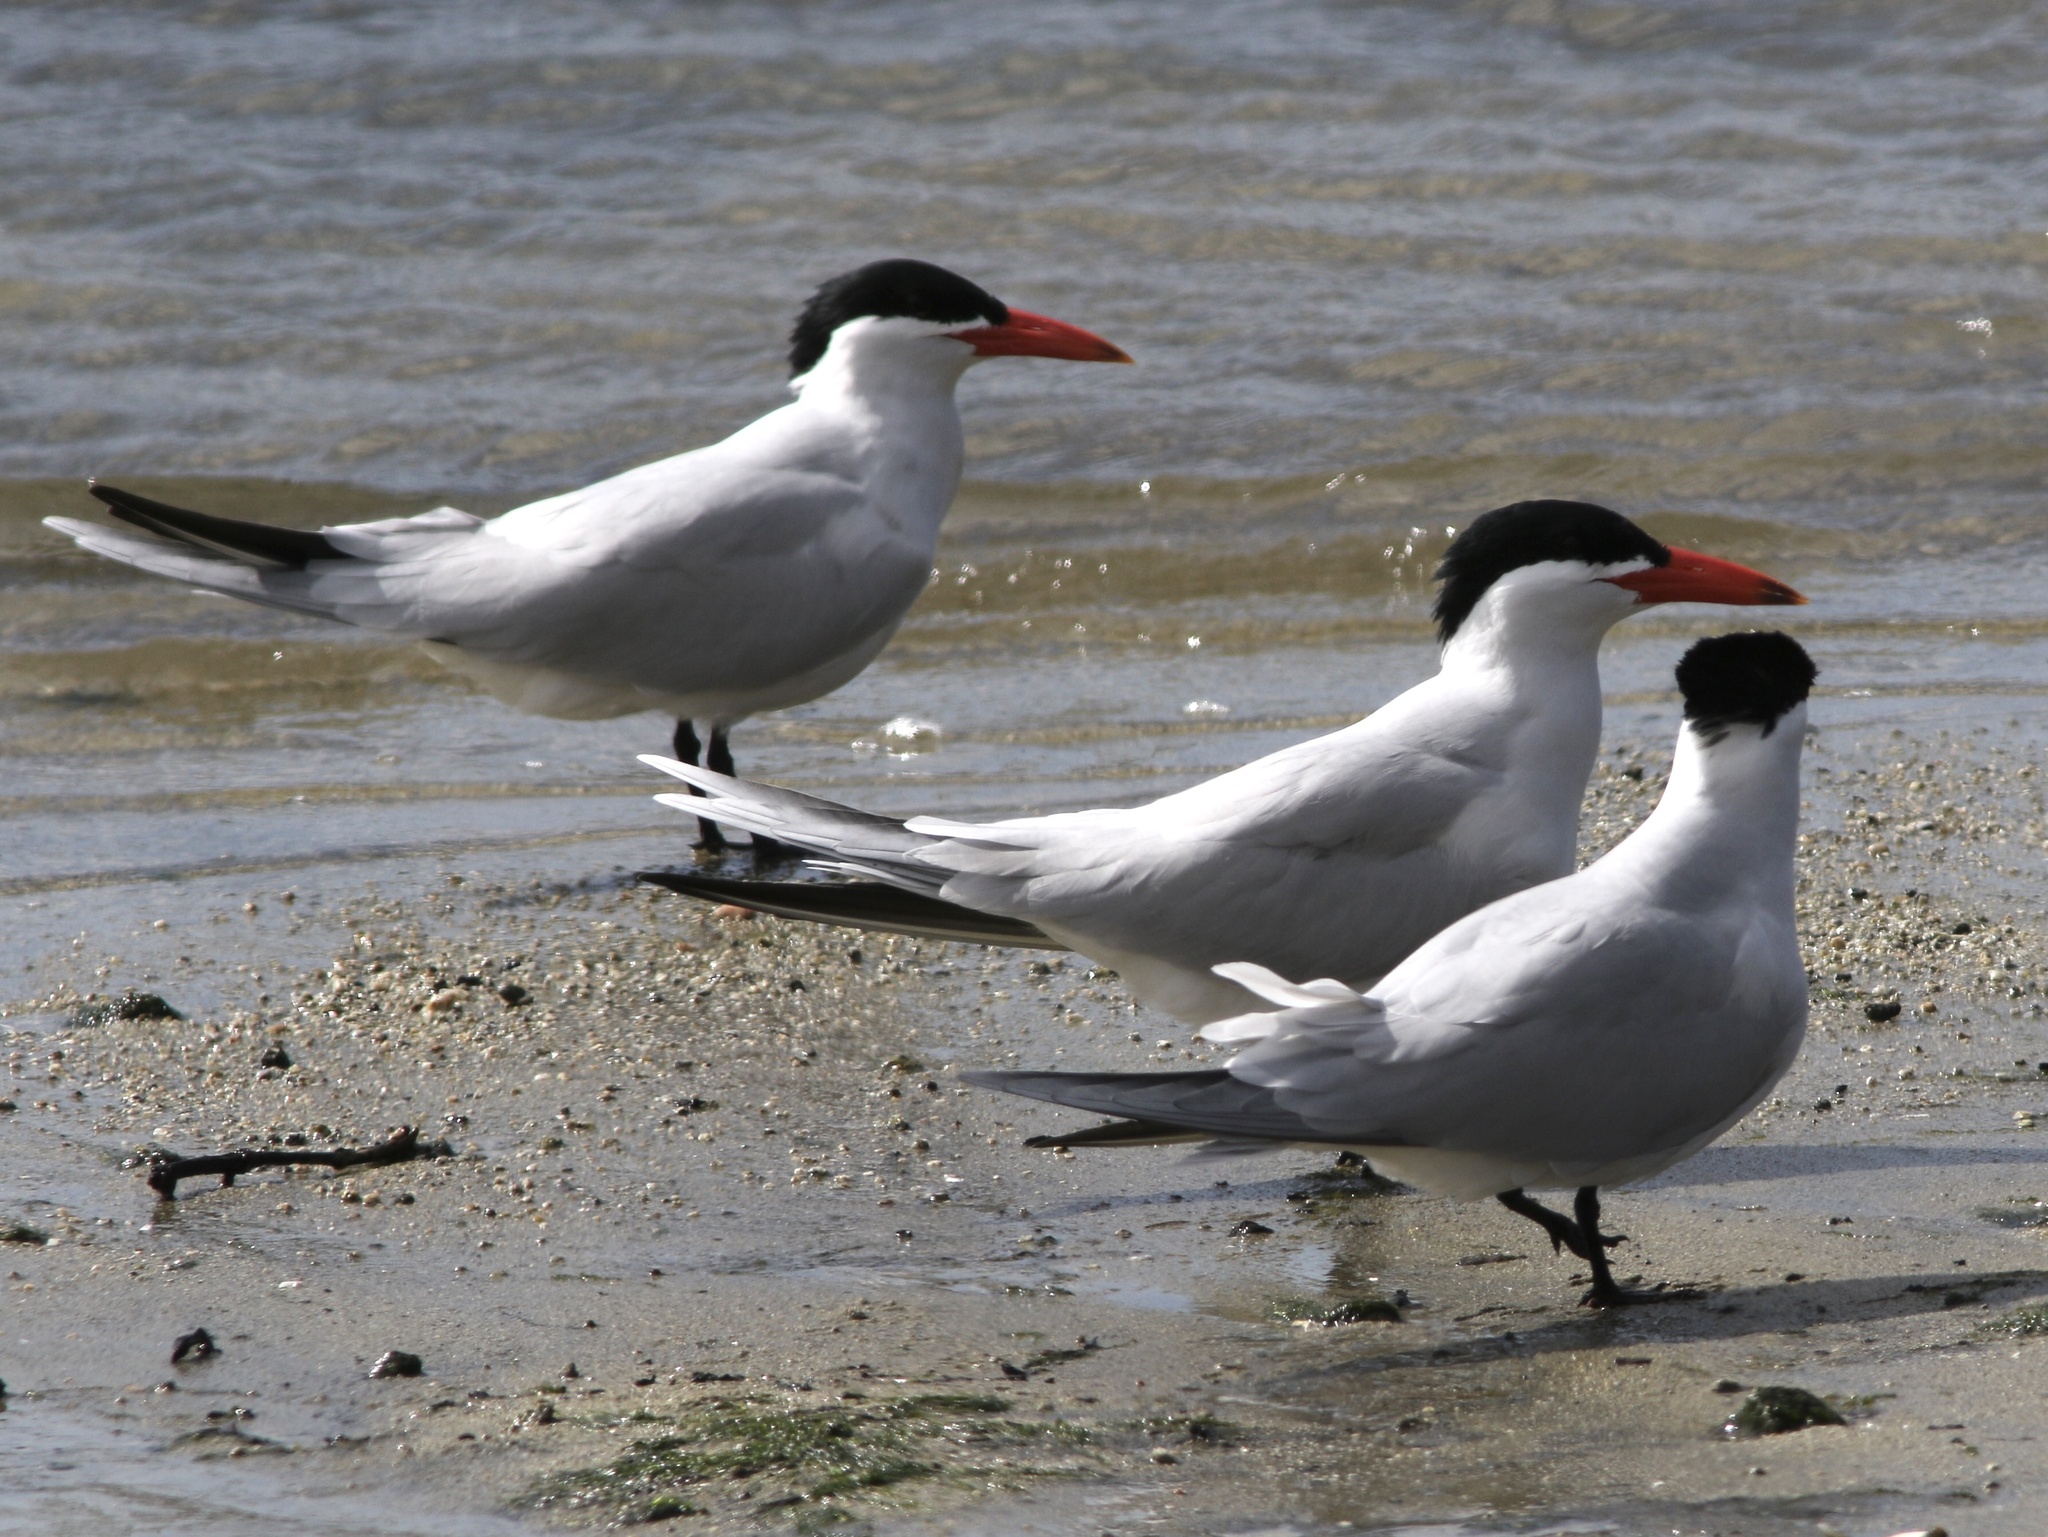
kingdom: Animalia
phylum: Chordata
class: Aves
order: Charadriiformes
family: Laridae
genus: Hydroprogne
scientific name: Hydroprogne caspia
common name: Caspian tern
